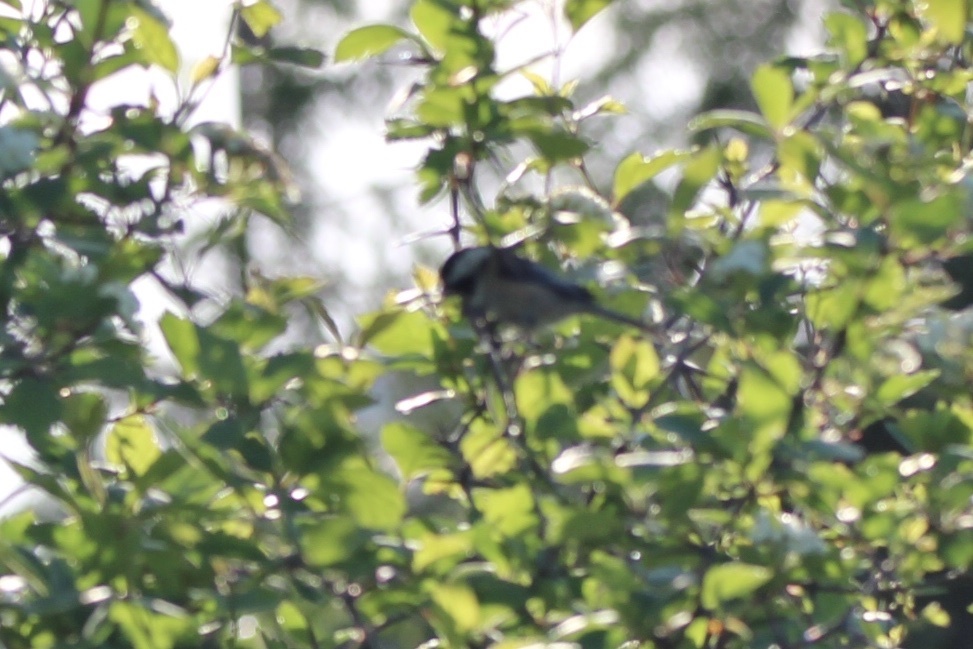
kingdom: Animalia
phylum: Chordata
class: Aves
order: Passeriformes
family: Paridae
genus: Poecile
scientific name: Poecile atricapillus
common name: Black-capped chickadee
